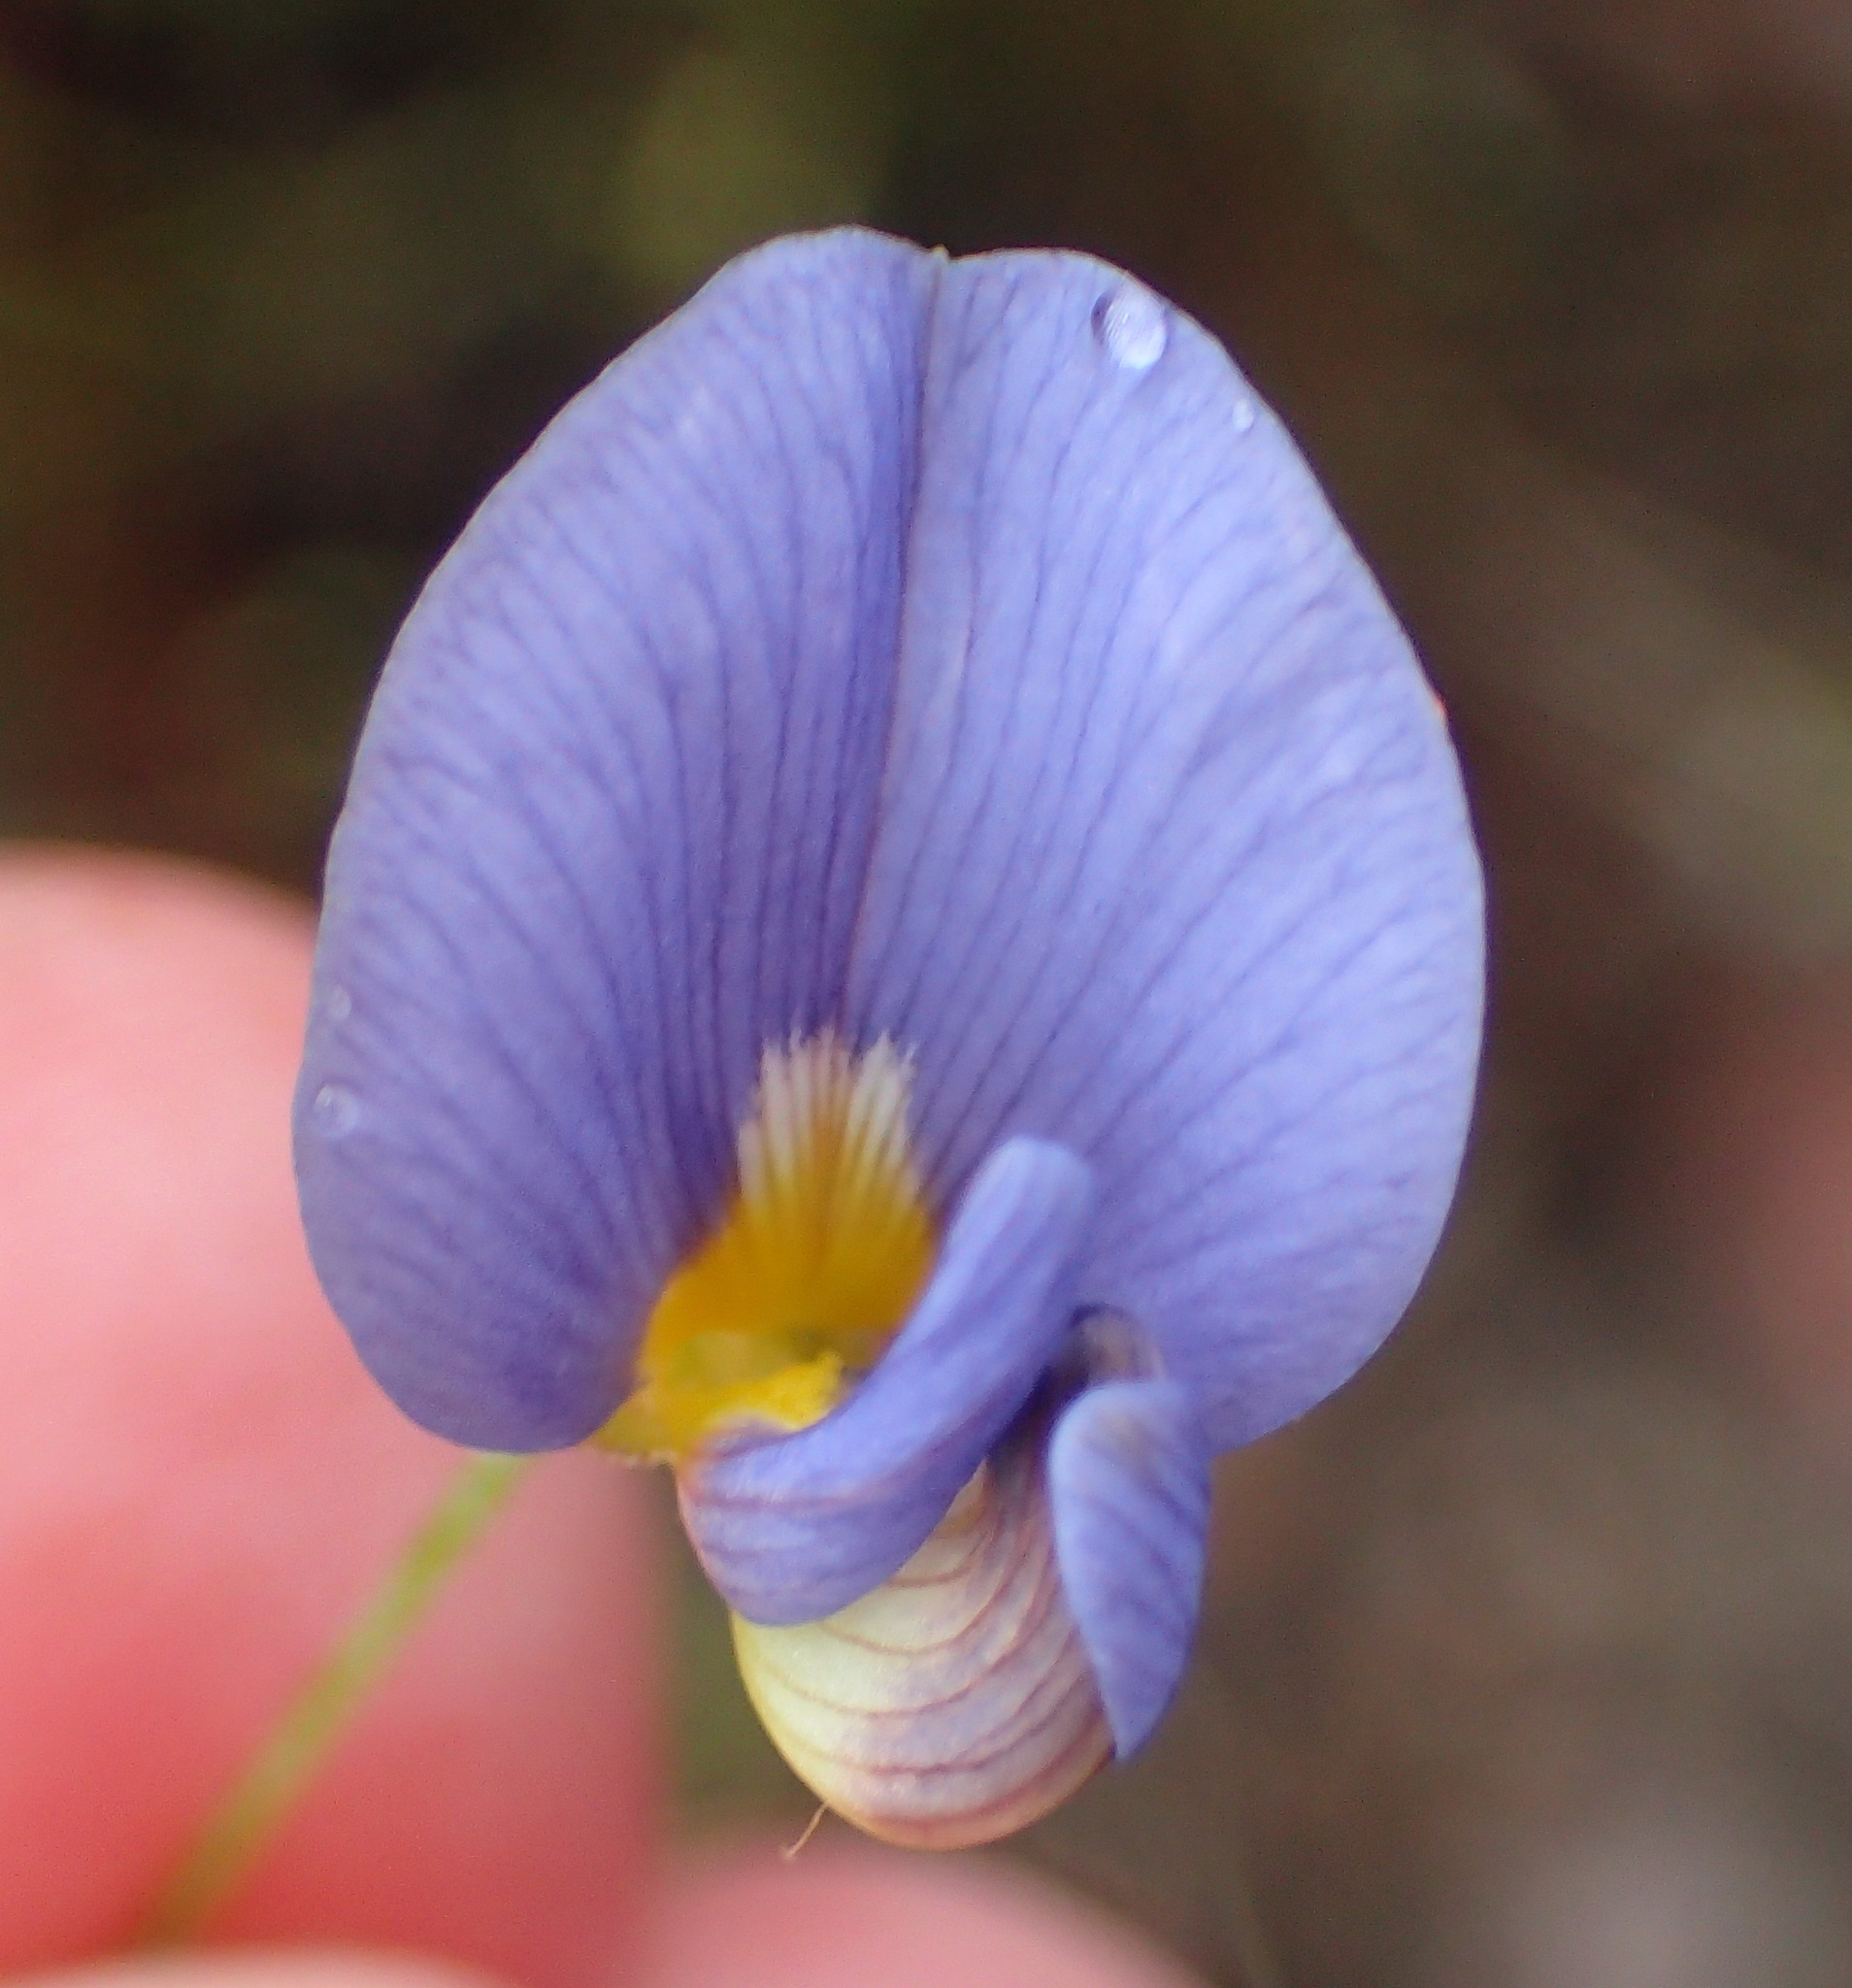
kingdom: Plantae
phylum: Tracheophyta
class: Magnoliopsida
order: Fabales
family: Fabaceae
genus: Lotononis
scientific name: Lotononis filiformis
